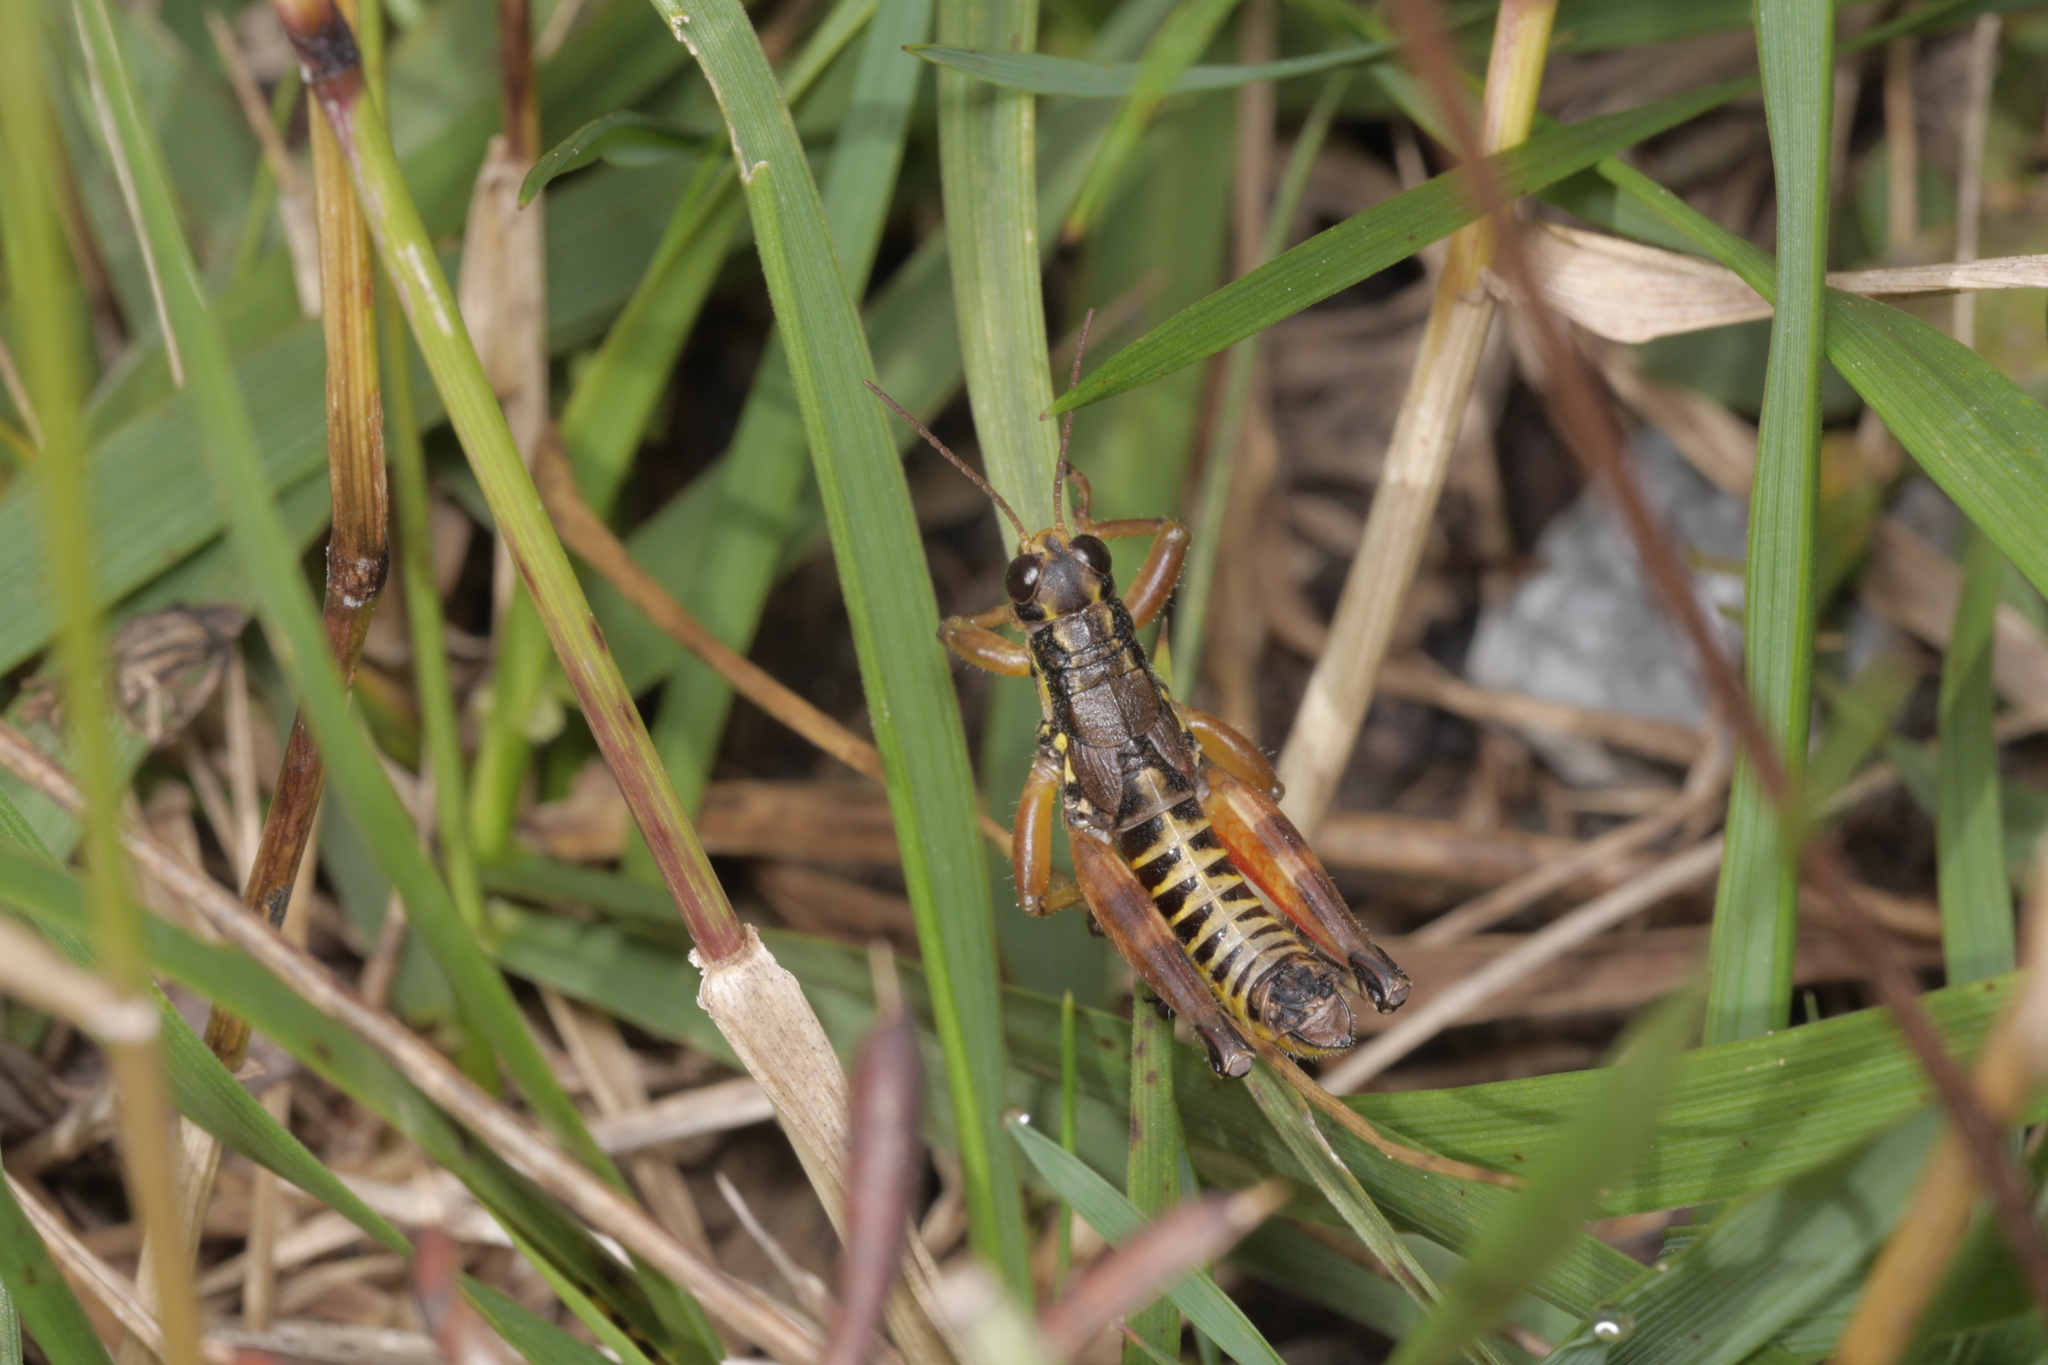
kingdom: Animalia
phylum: Arthropoda
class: Insecta
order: Orthoptera
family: Acrididae
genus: Podisma
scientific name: Podisma pedestris
